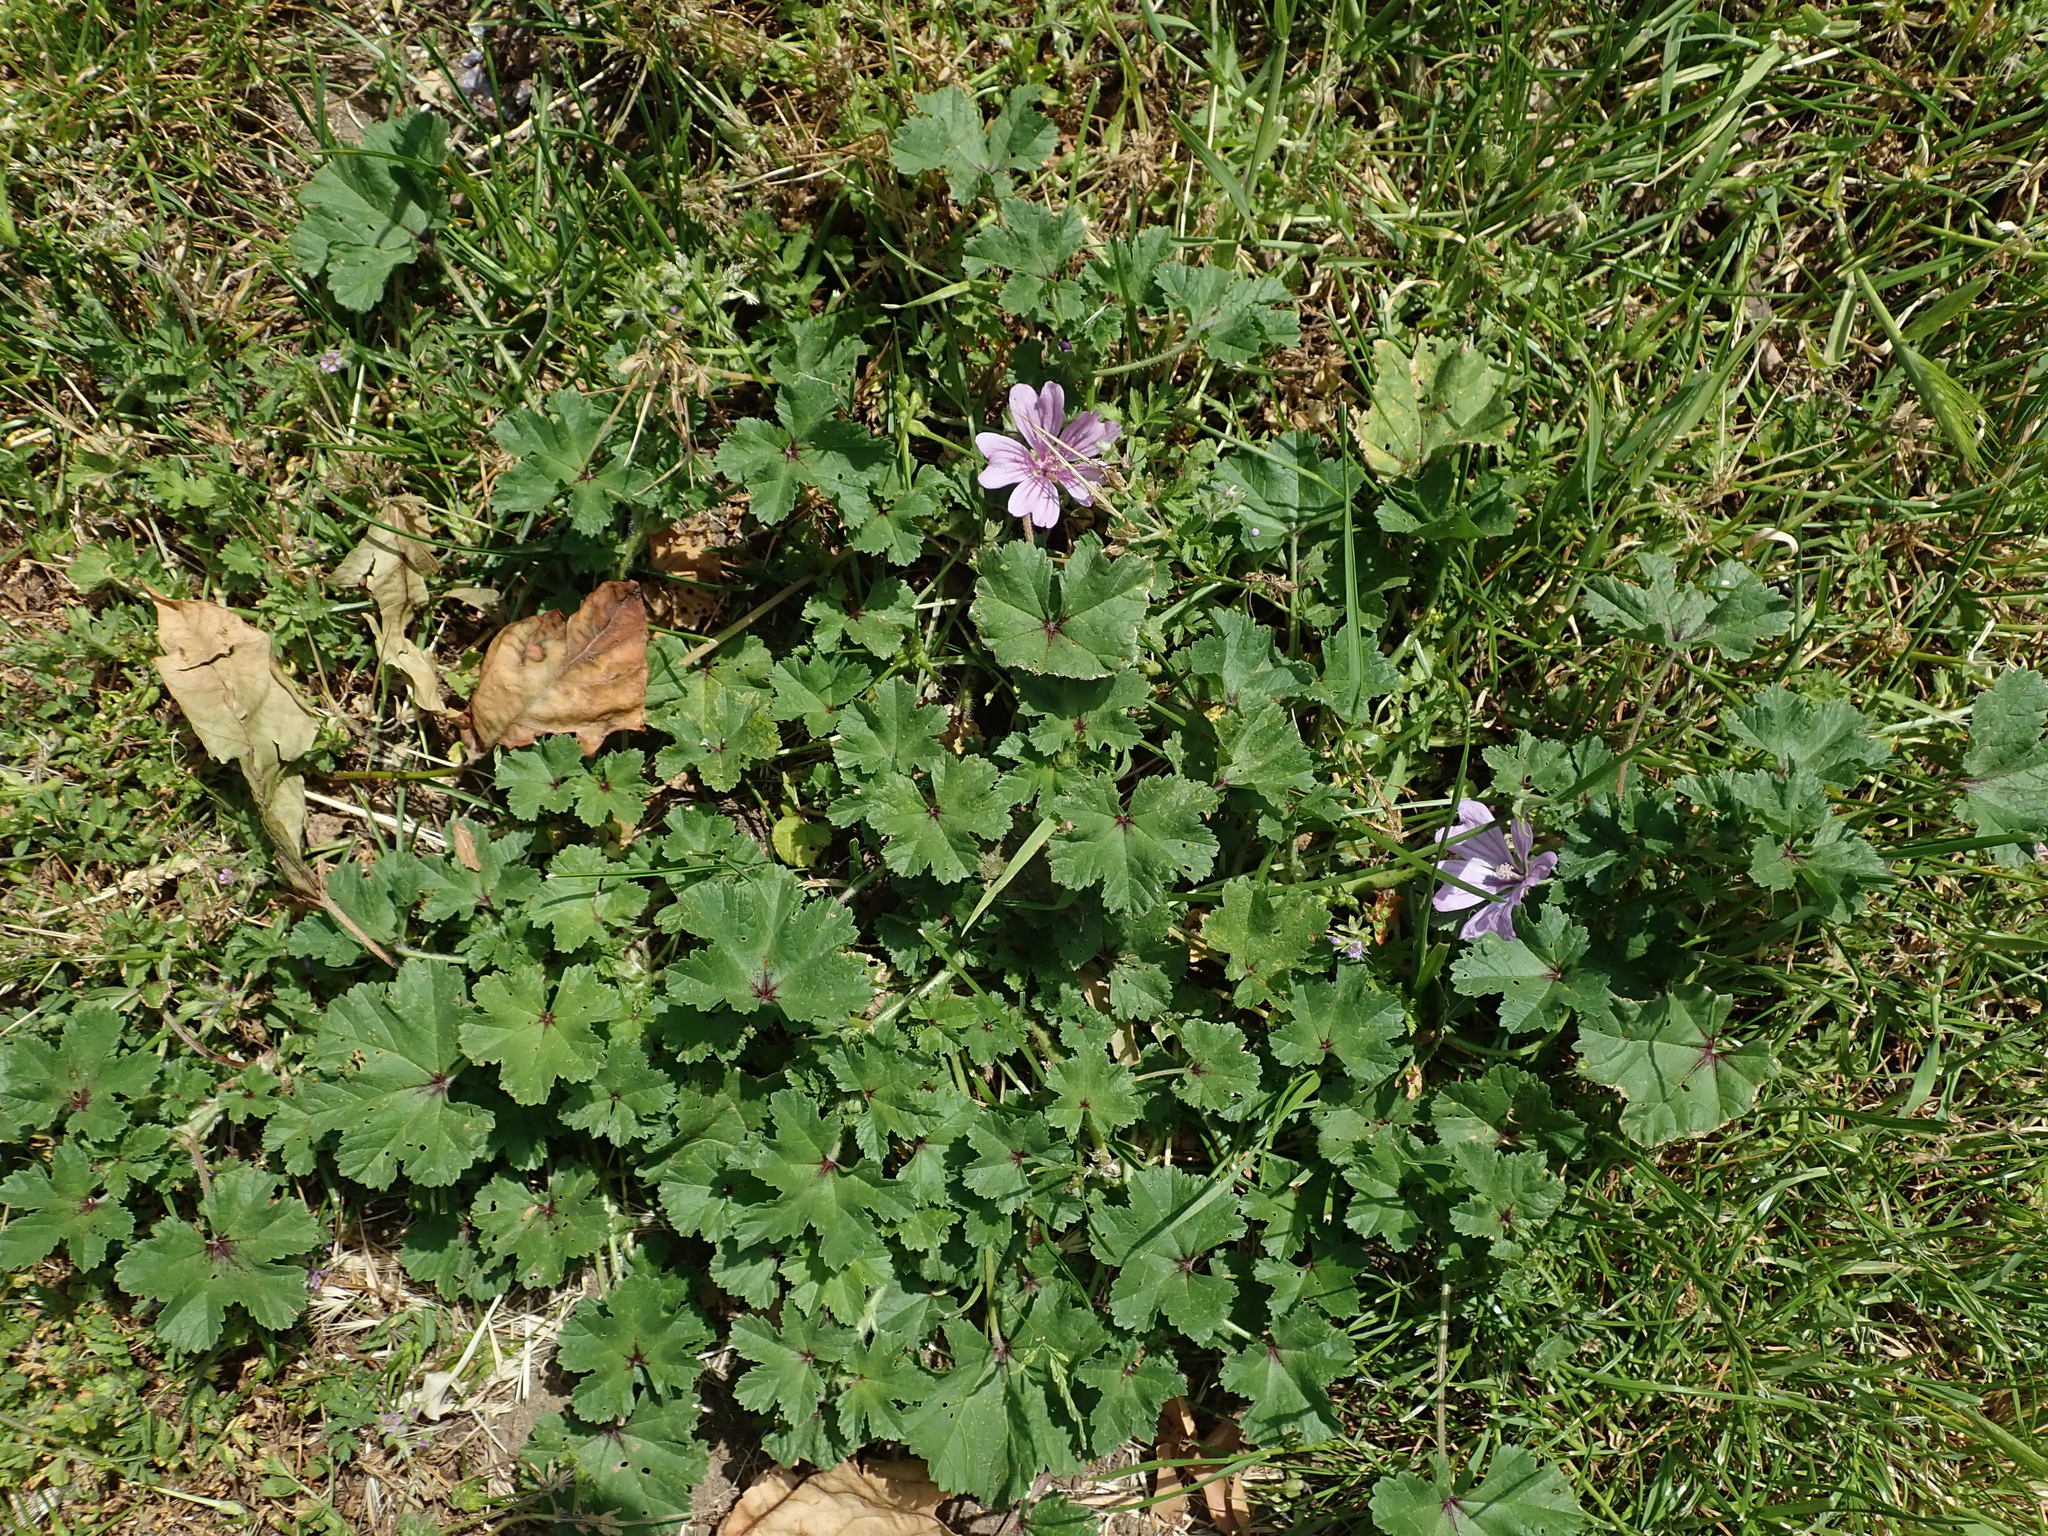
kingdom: Plantae
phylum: Tracheophyta
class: Magnoliopsida
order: Malvales
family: Malvaceae
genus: Malva
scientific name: Malva sylvestris
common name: Common mallow
